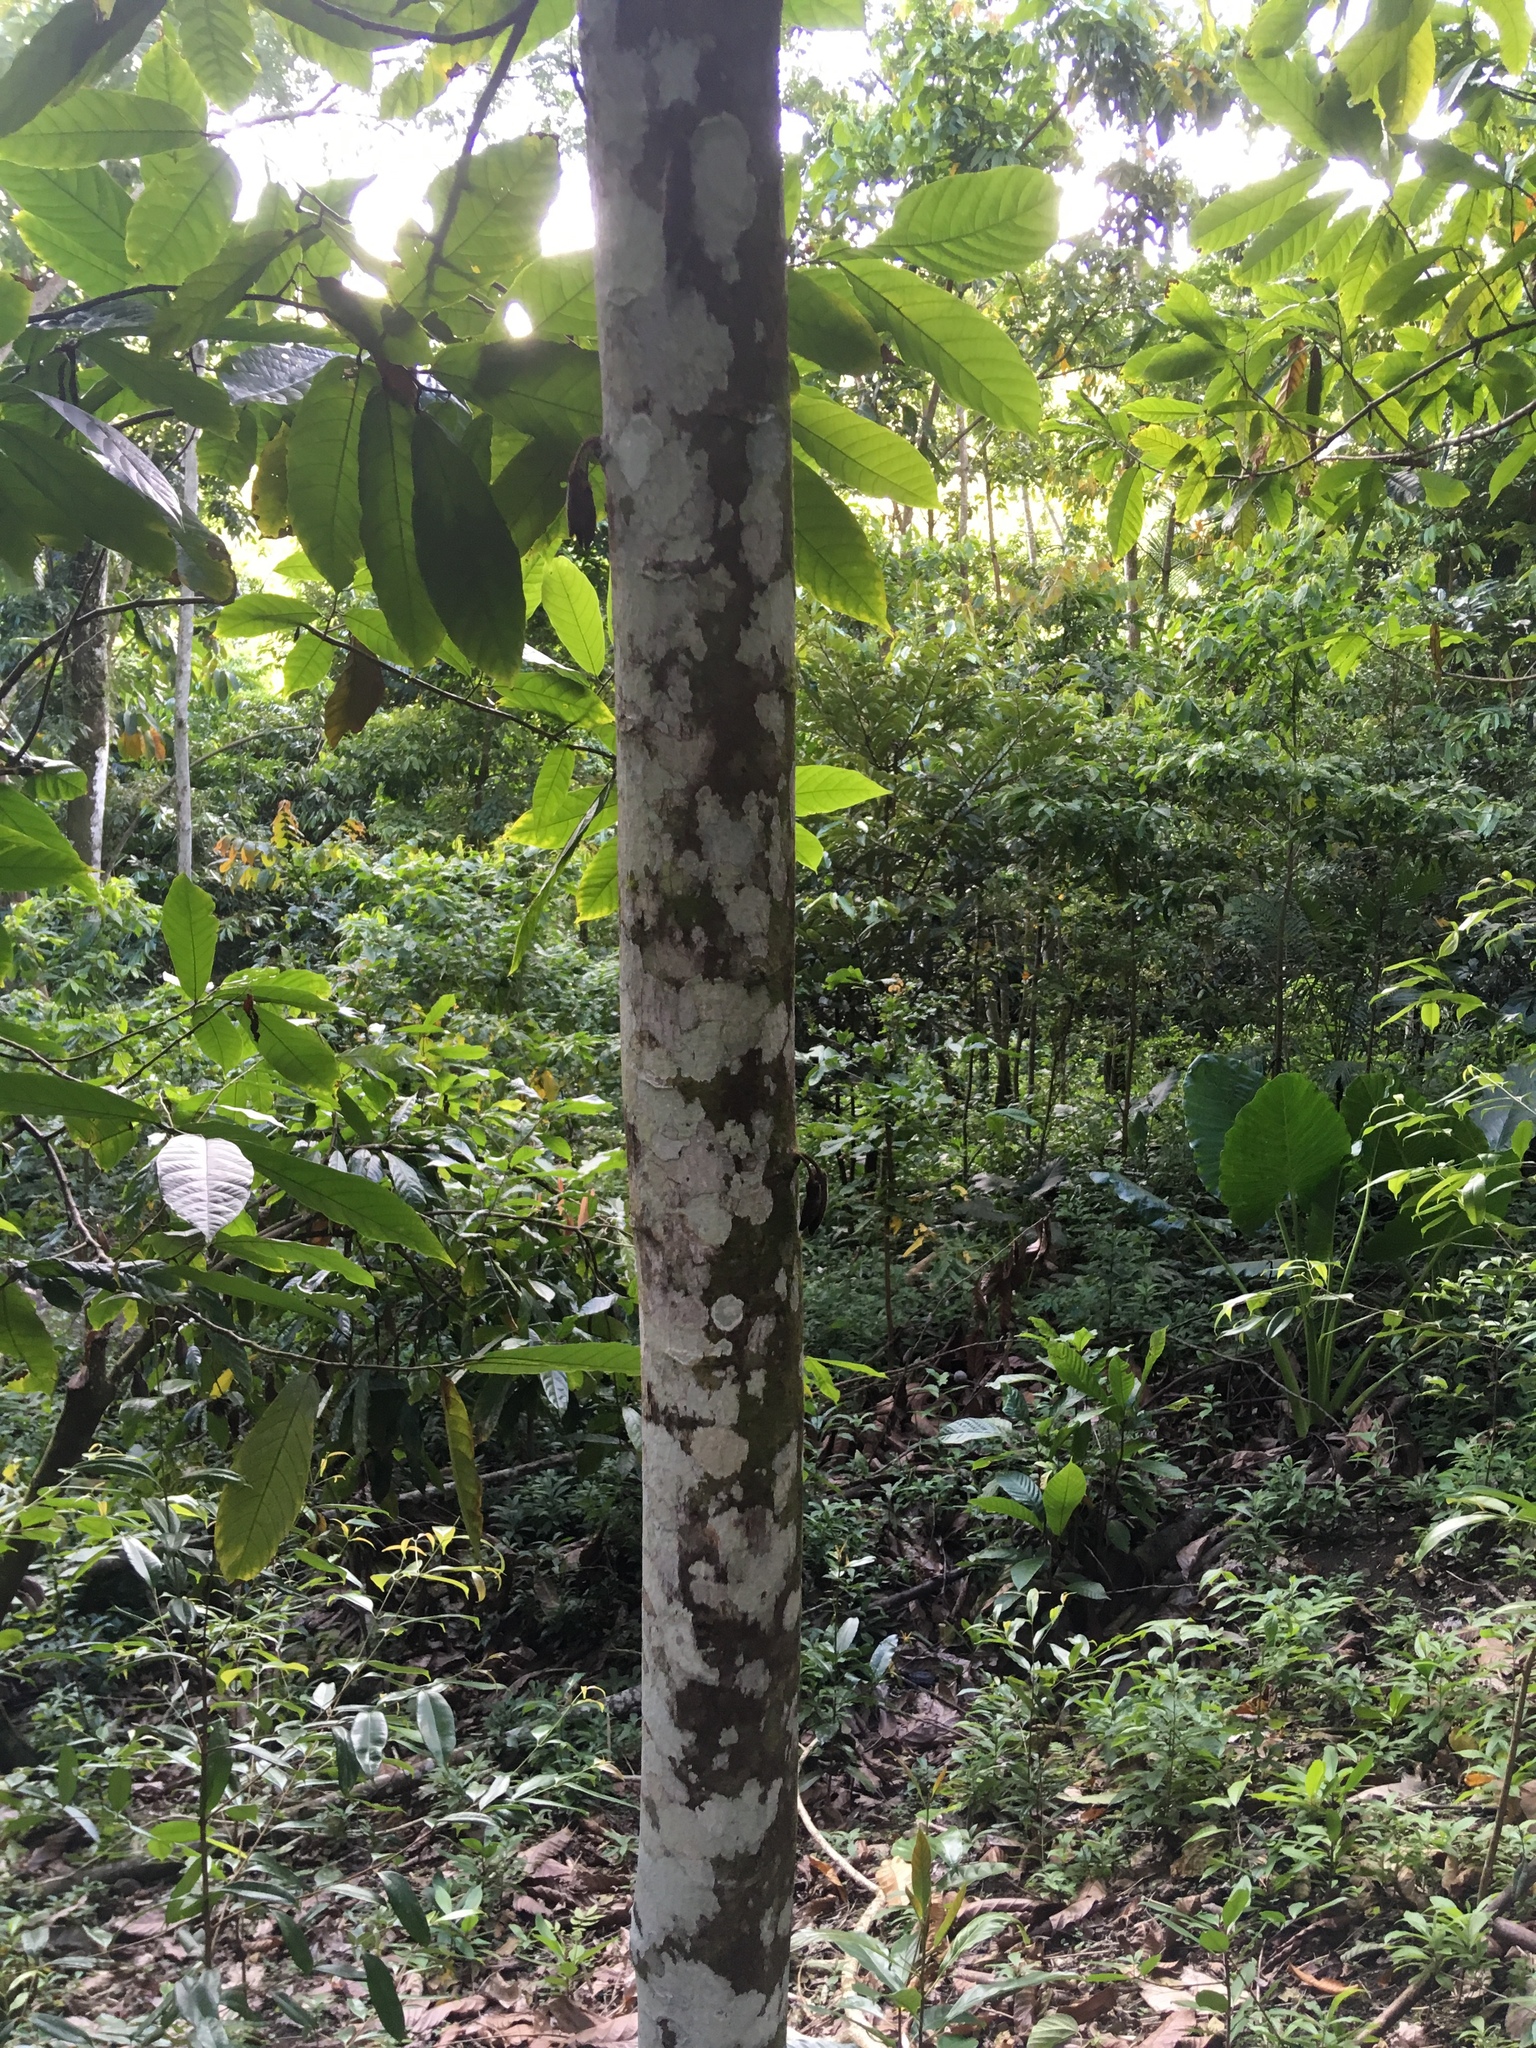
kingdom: Plantae
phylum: Tracheophyta
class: Magnoliopsida
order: Malvales
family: Malvaceae
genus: Theobroma
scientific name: Theobroma cacao
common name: Cocoa
